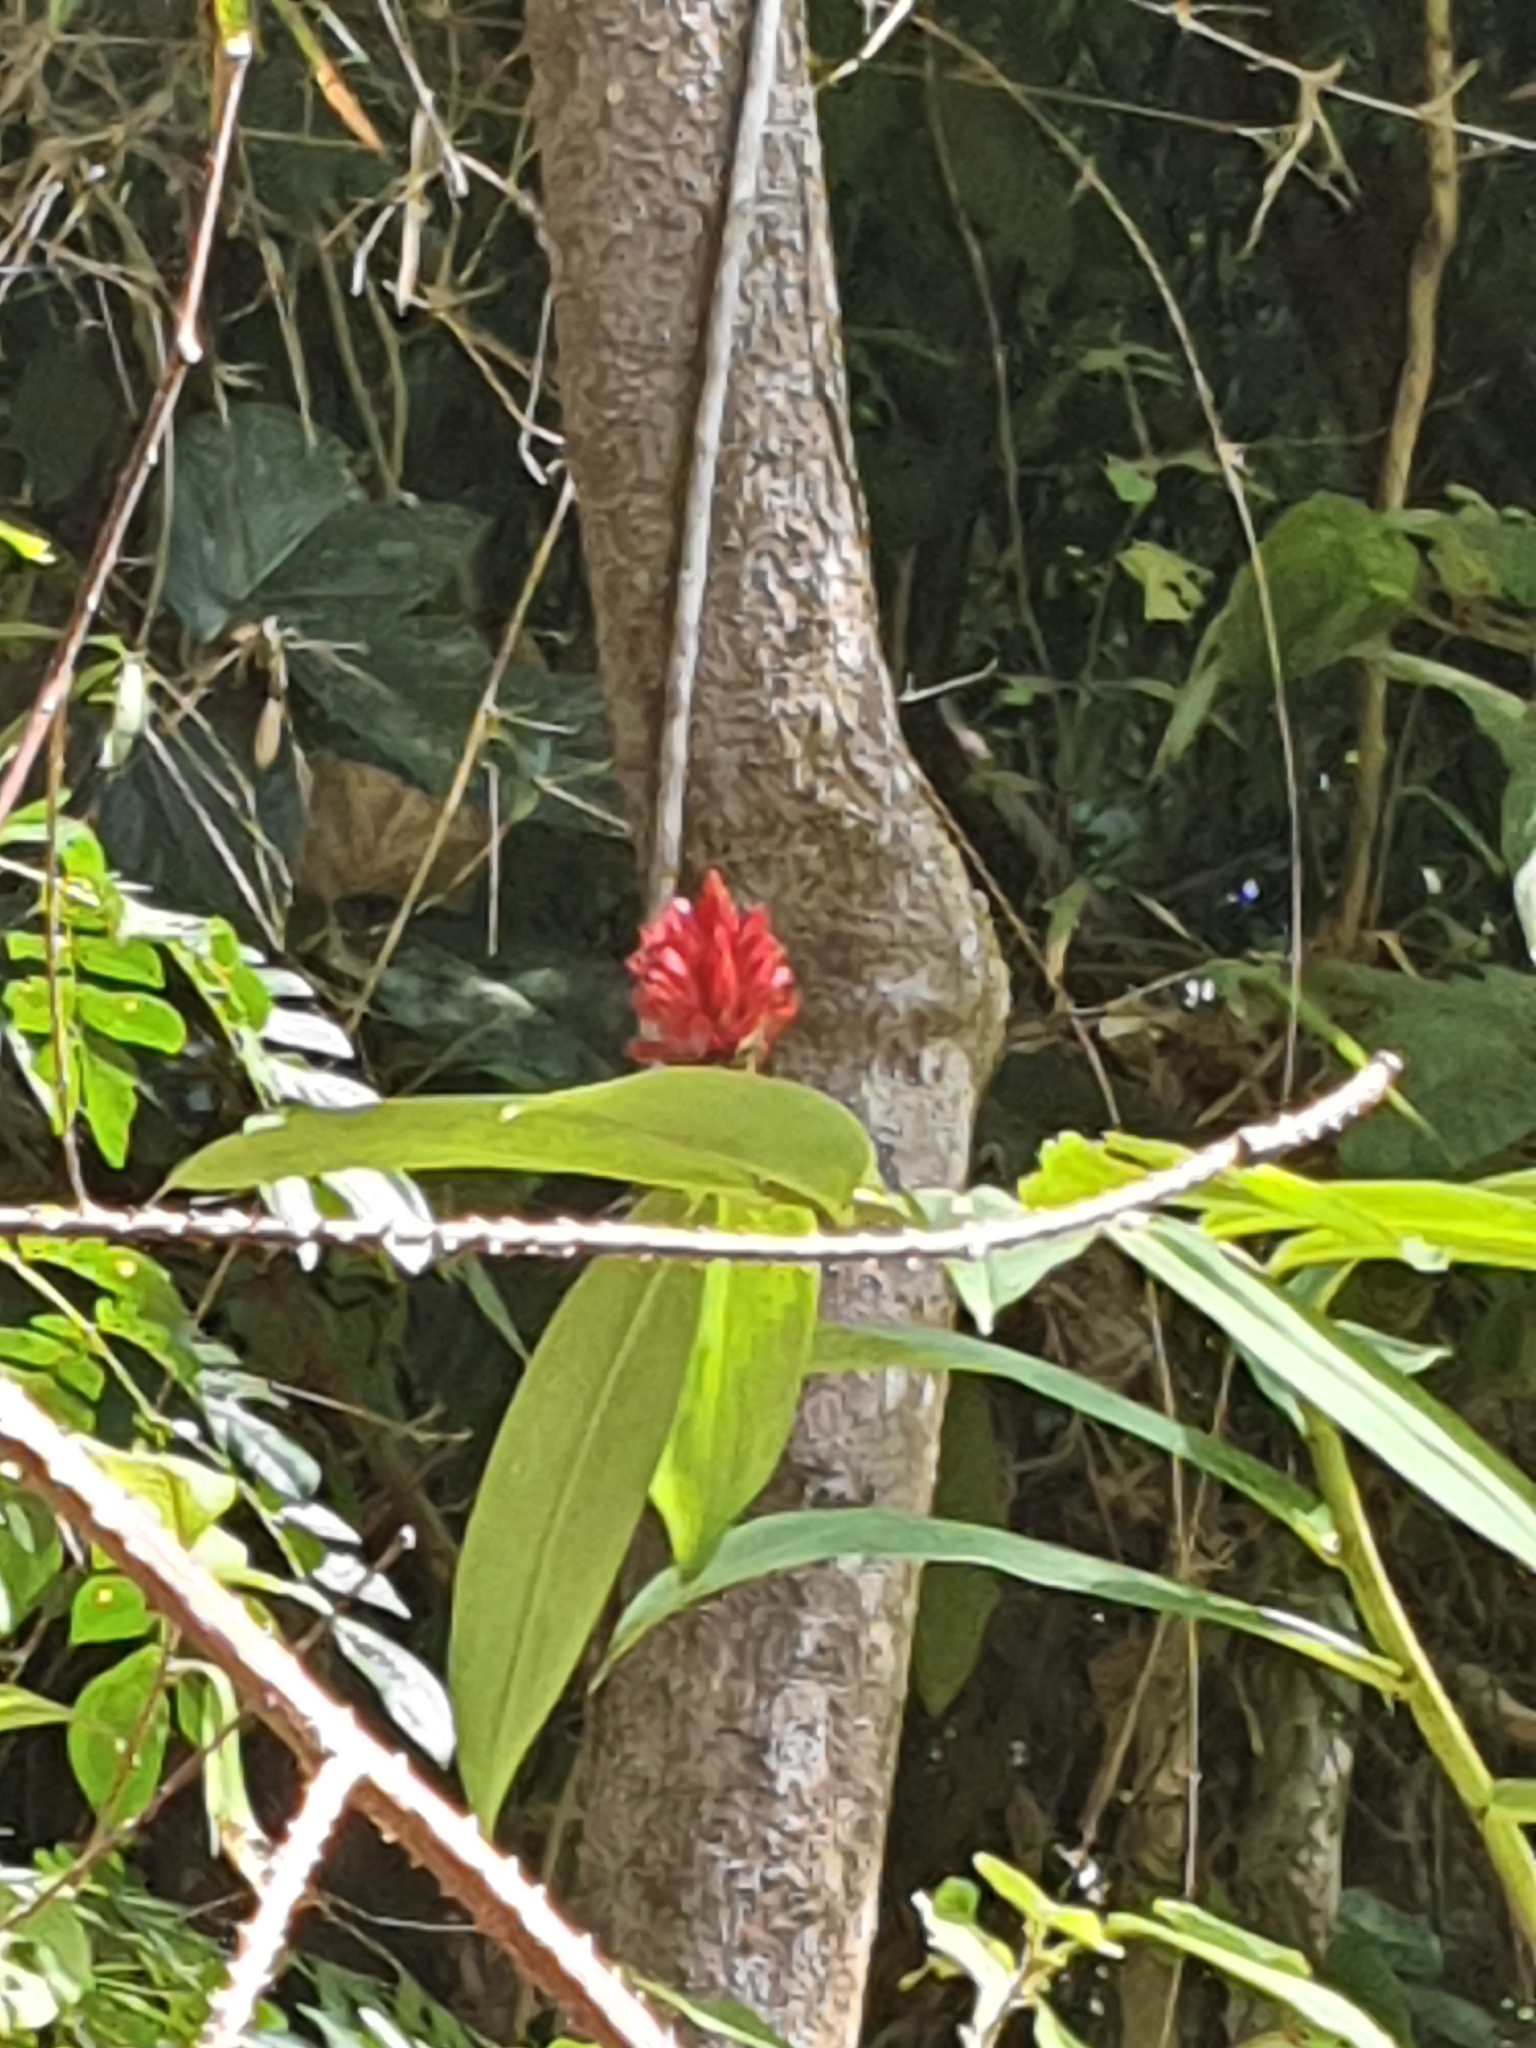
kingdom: Plantae
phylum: Tracheophyta
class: Liliopsida
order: Zingiberales
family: Costaceae
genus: Hellenia
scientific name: Hellenia speciosa
